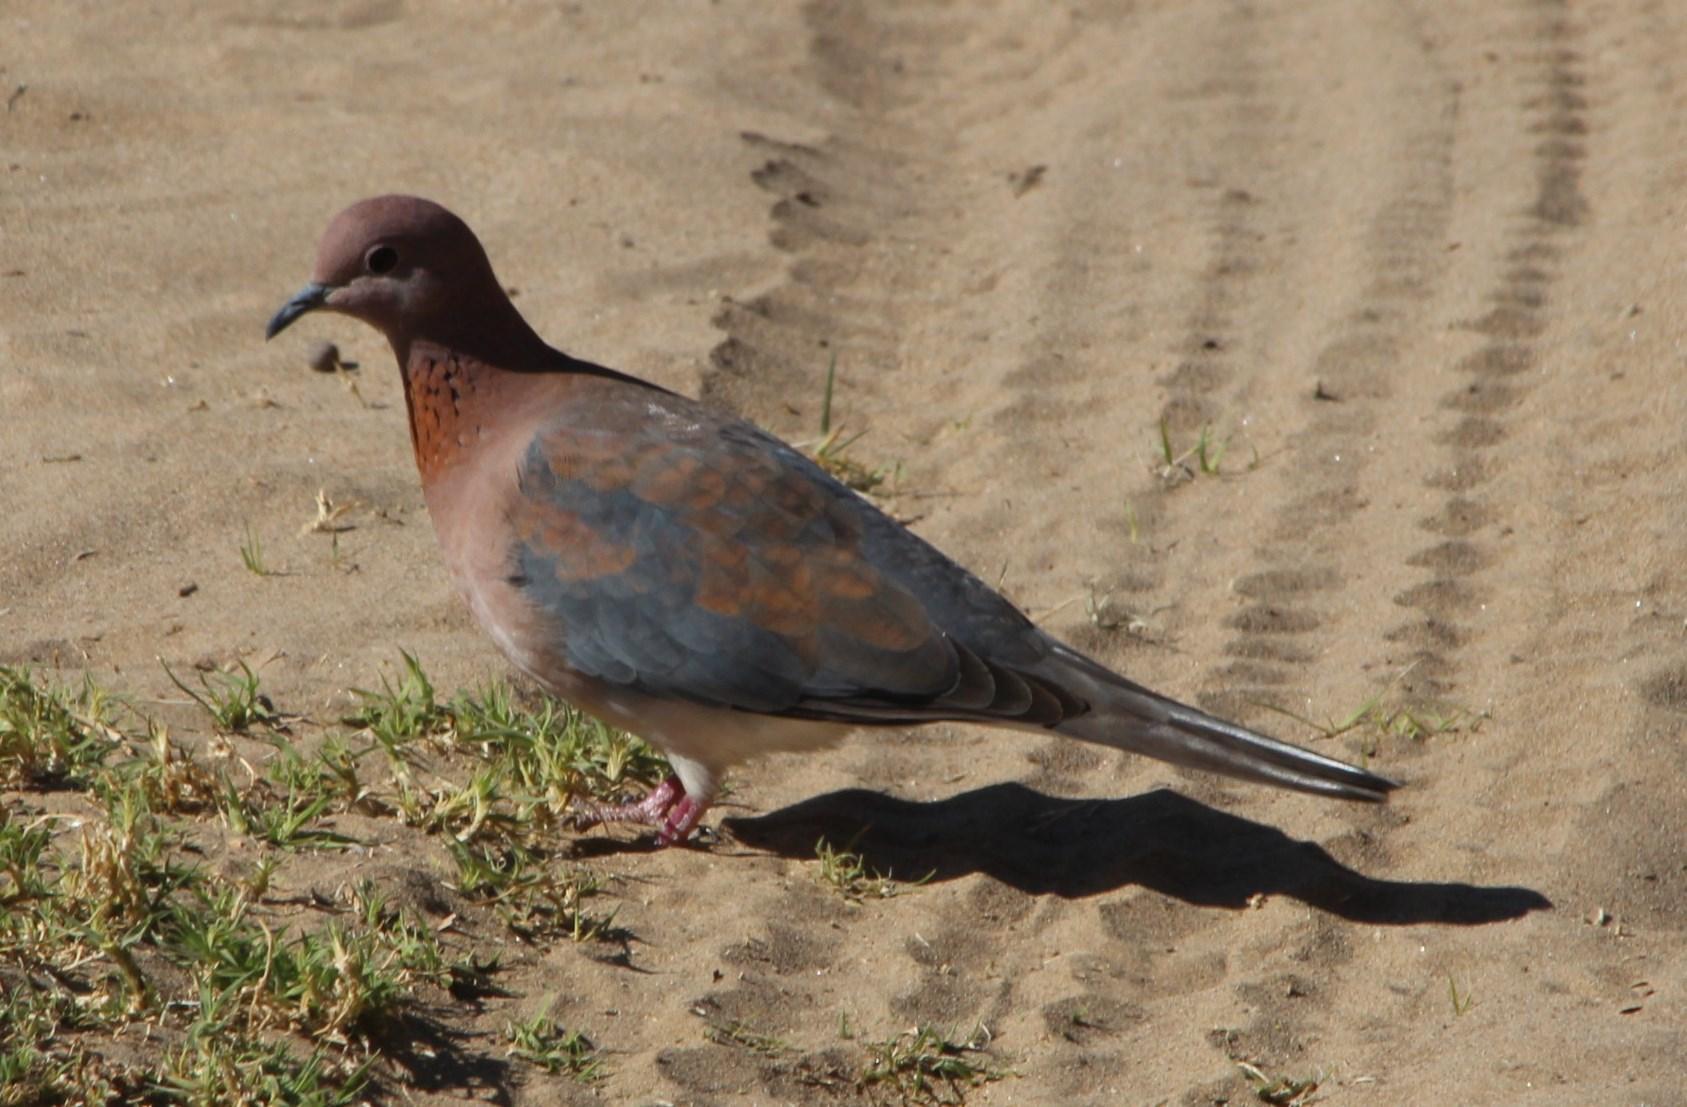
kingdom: Animalia
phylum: Chordata
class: Aves
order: Columbiformes
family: Columbidae
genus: Spilopelia
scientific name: Spilopelia senegalensis
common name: Laughing dove
